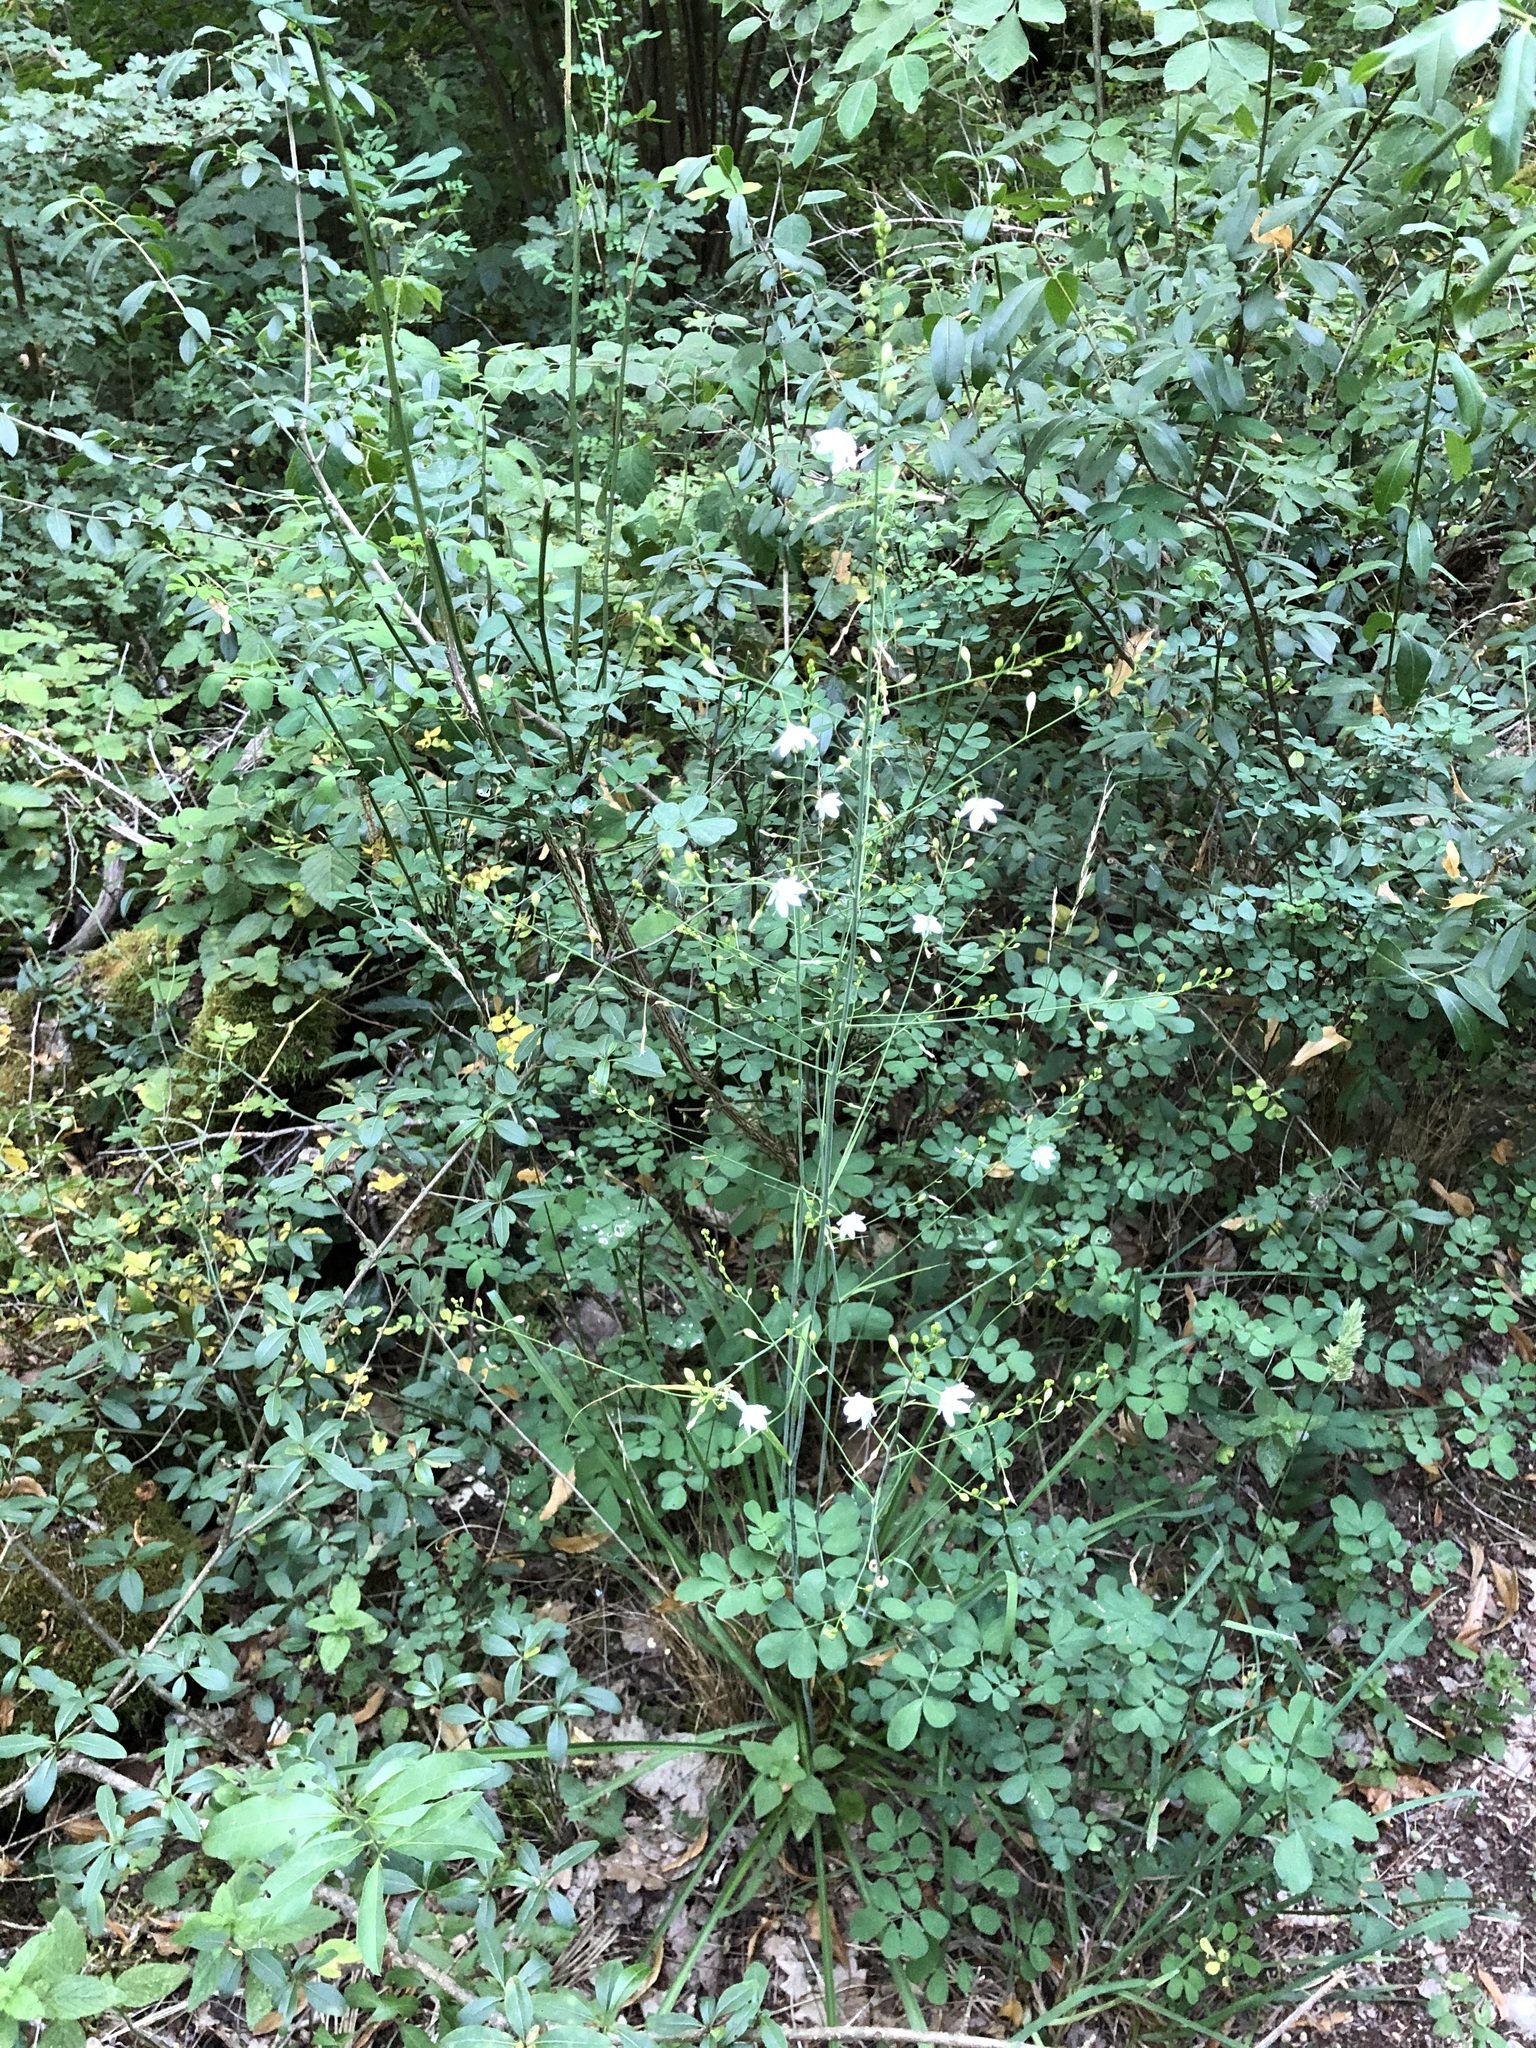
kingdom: Plantae
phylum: Tracheophyta
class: Liliopsida
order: Asparagales
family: Asparagaceae
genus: Anthericum
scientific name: Anthericum ramosum
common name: Branched st. bernard's-lily
